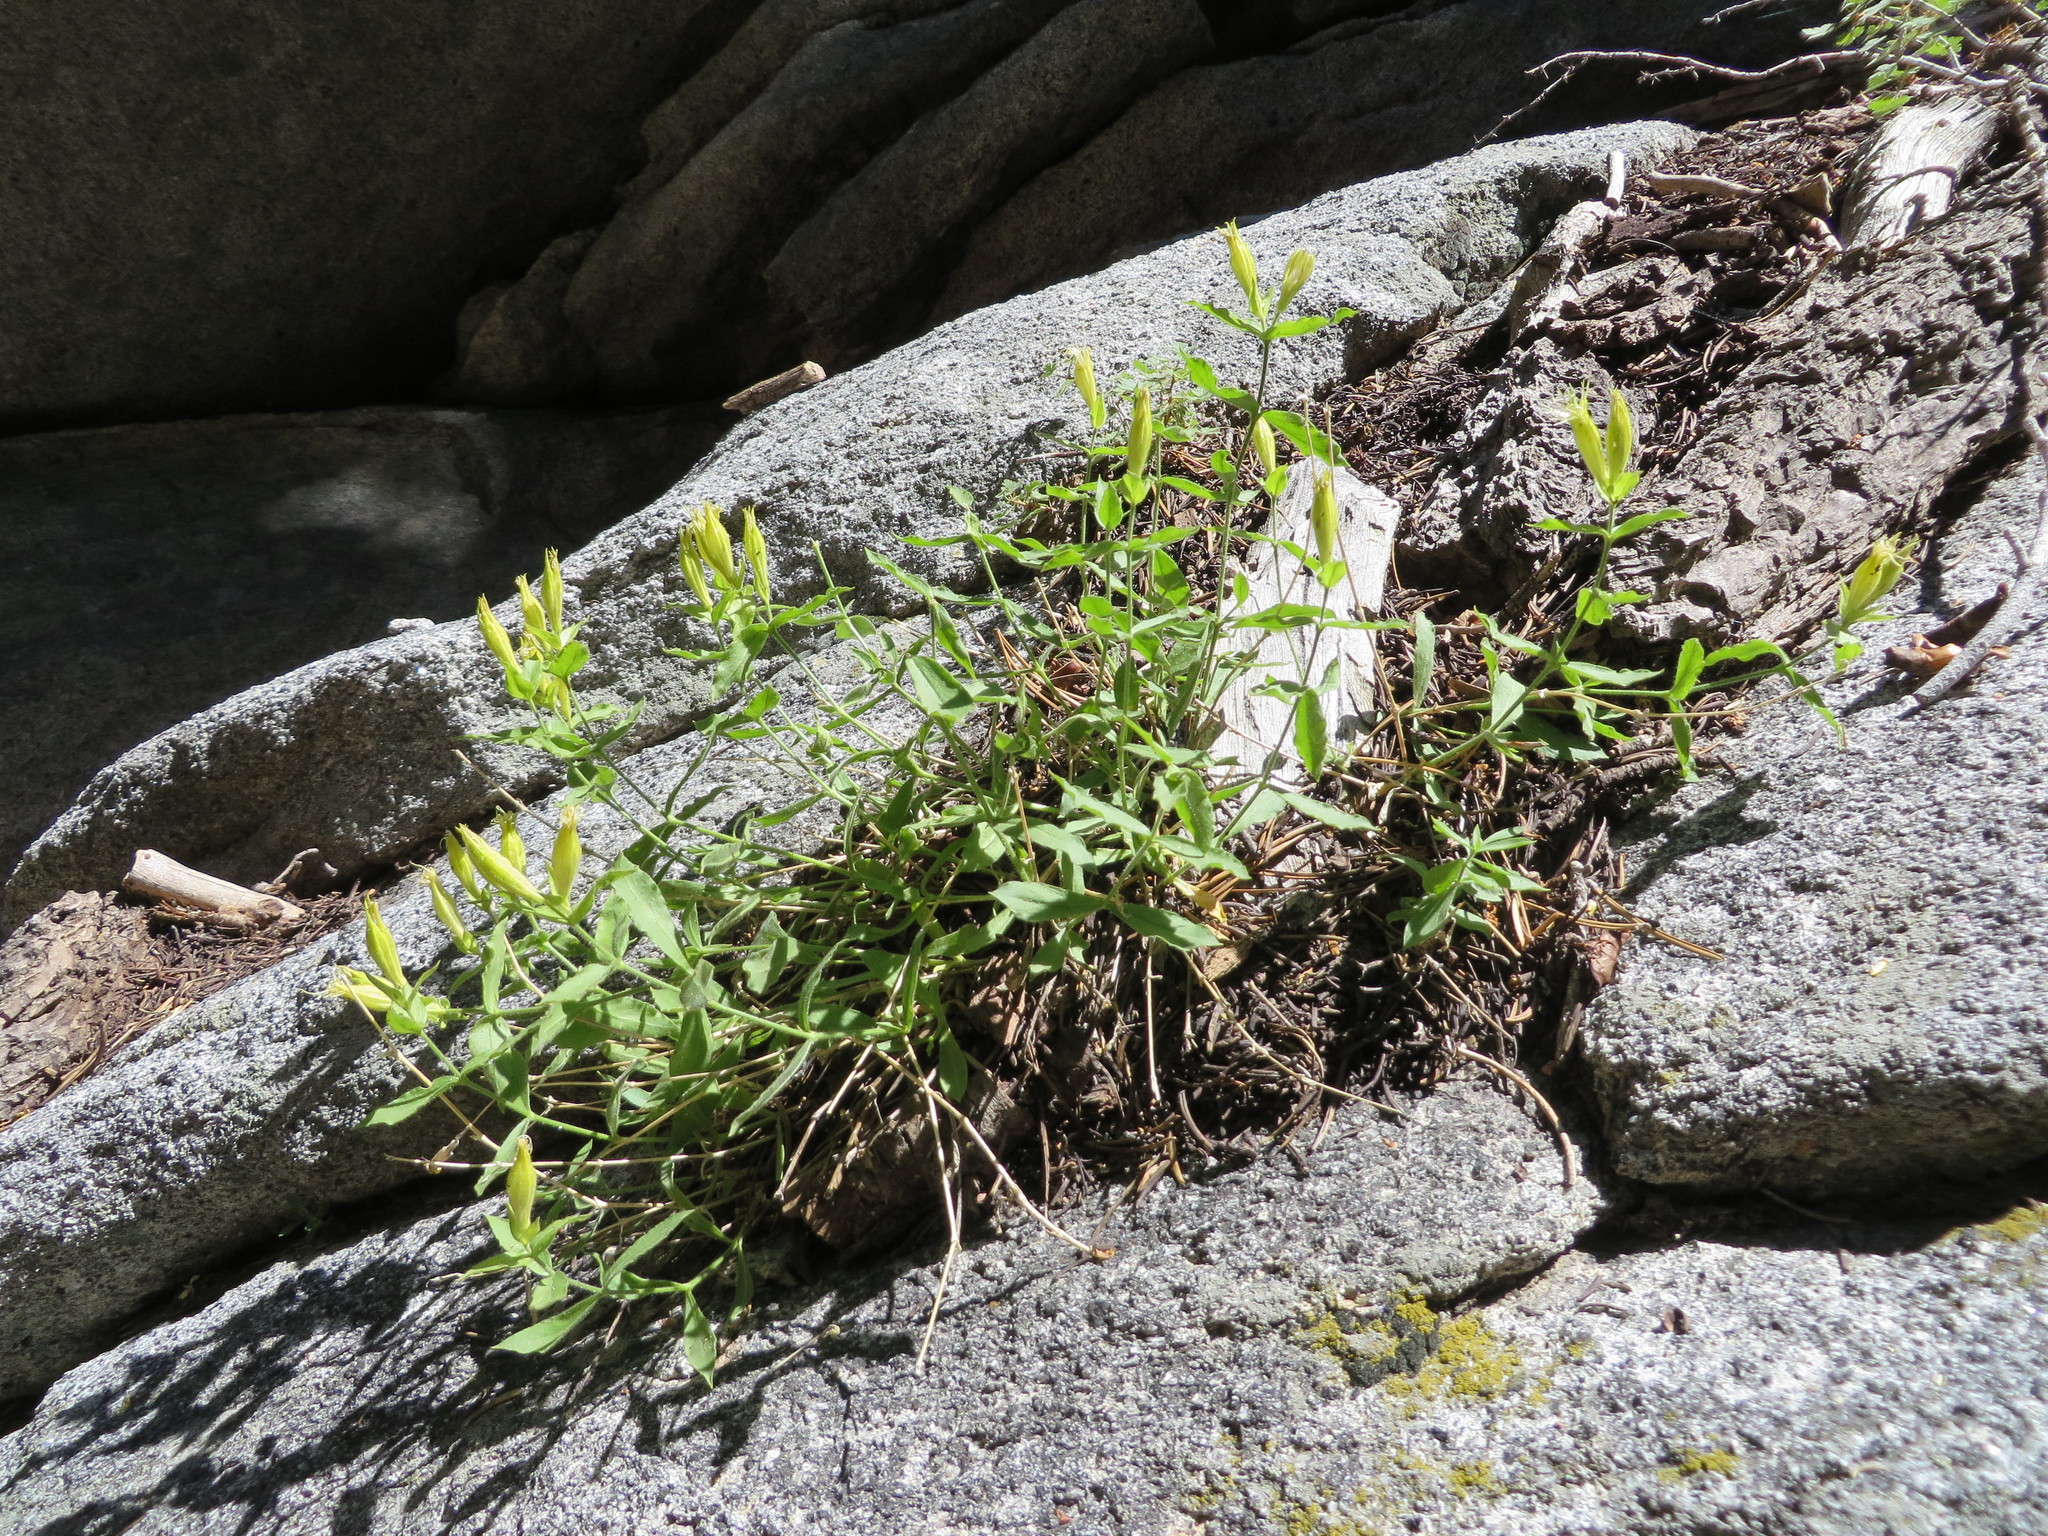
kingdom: Plantae
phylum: Tracheophyta
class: Magnoliopsida
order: Caryophyllales
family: Caryophyllaceae
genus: Silene
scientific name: Silene parishii
